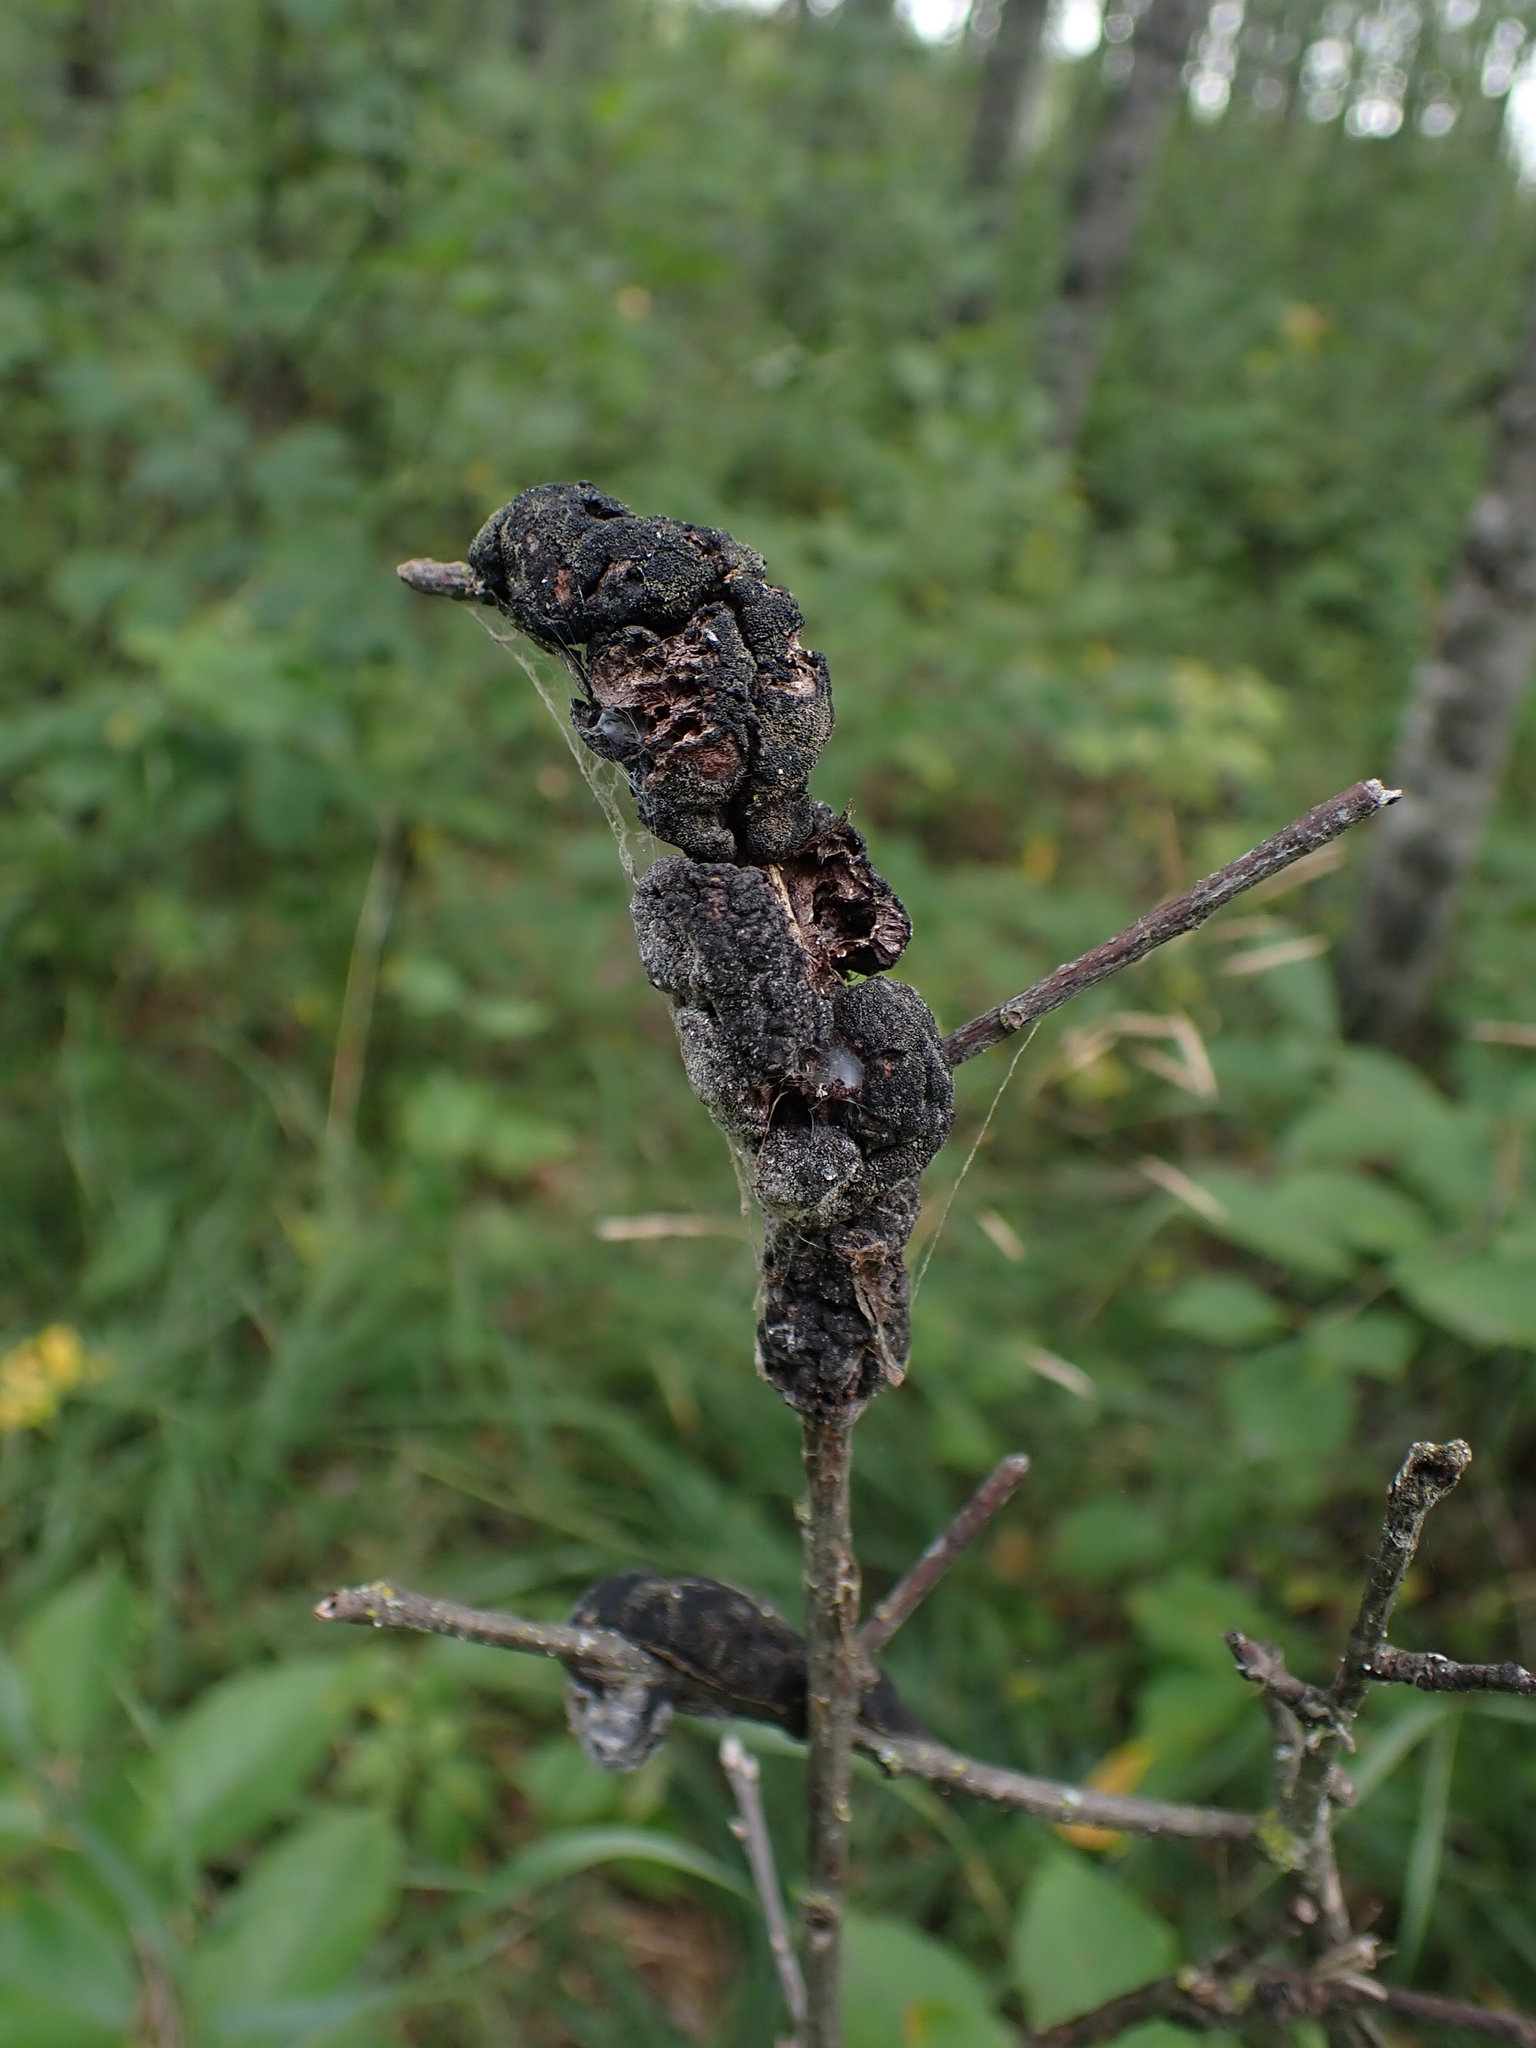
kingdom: Fungi
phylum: Ascomycota
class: Dothideomycetes
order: Venturiales
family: Venturiaceae
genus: Apiosporina
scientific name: Apiosporina morbosa
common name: Black knot
